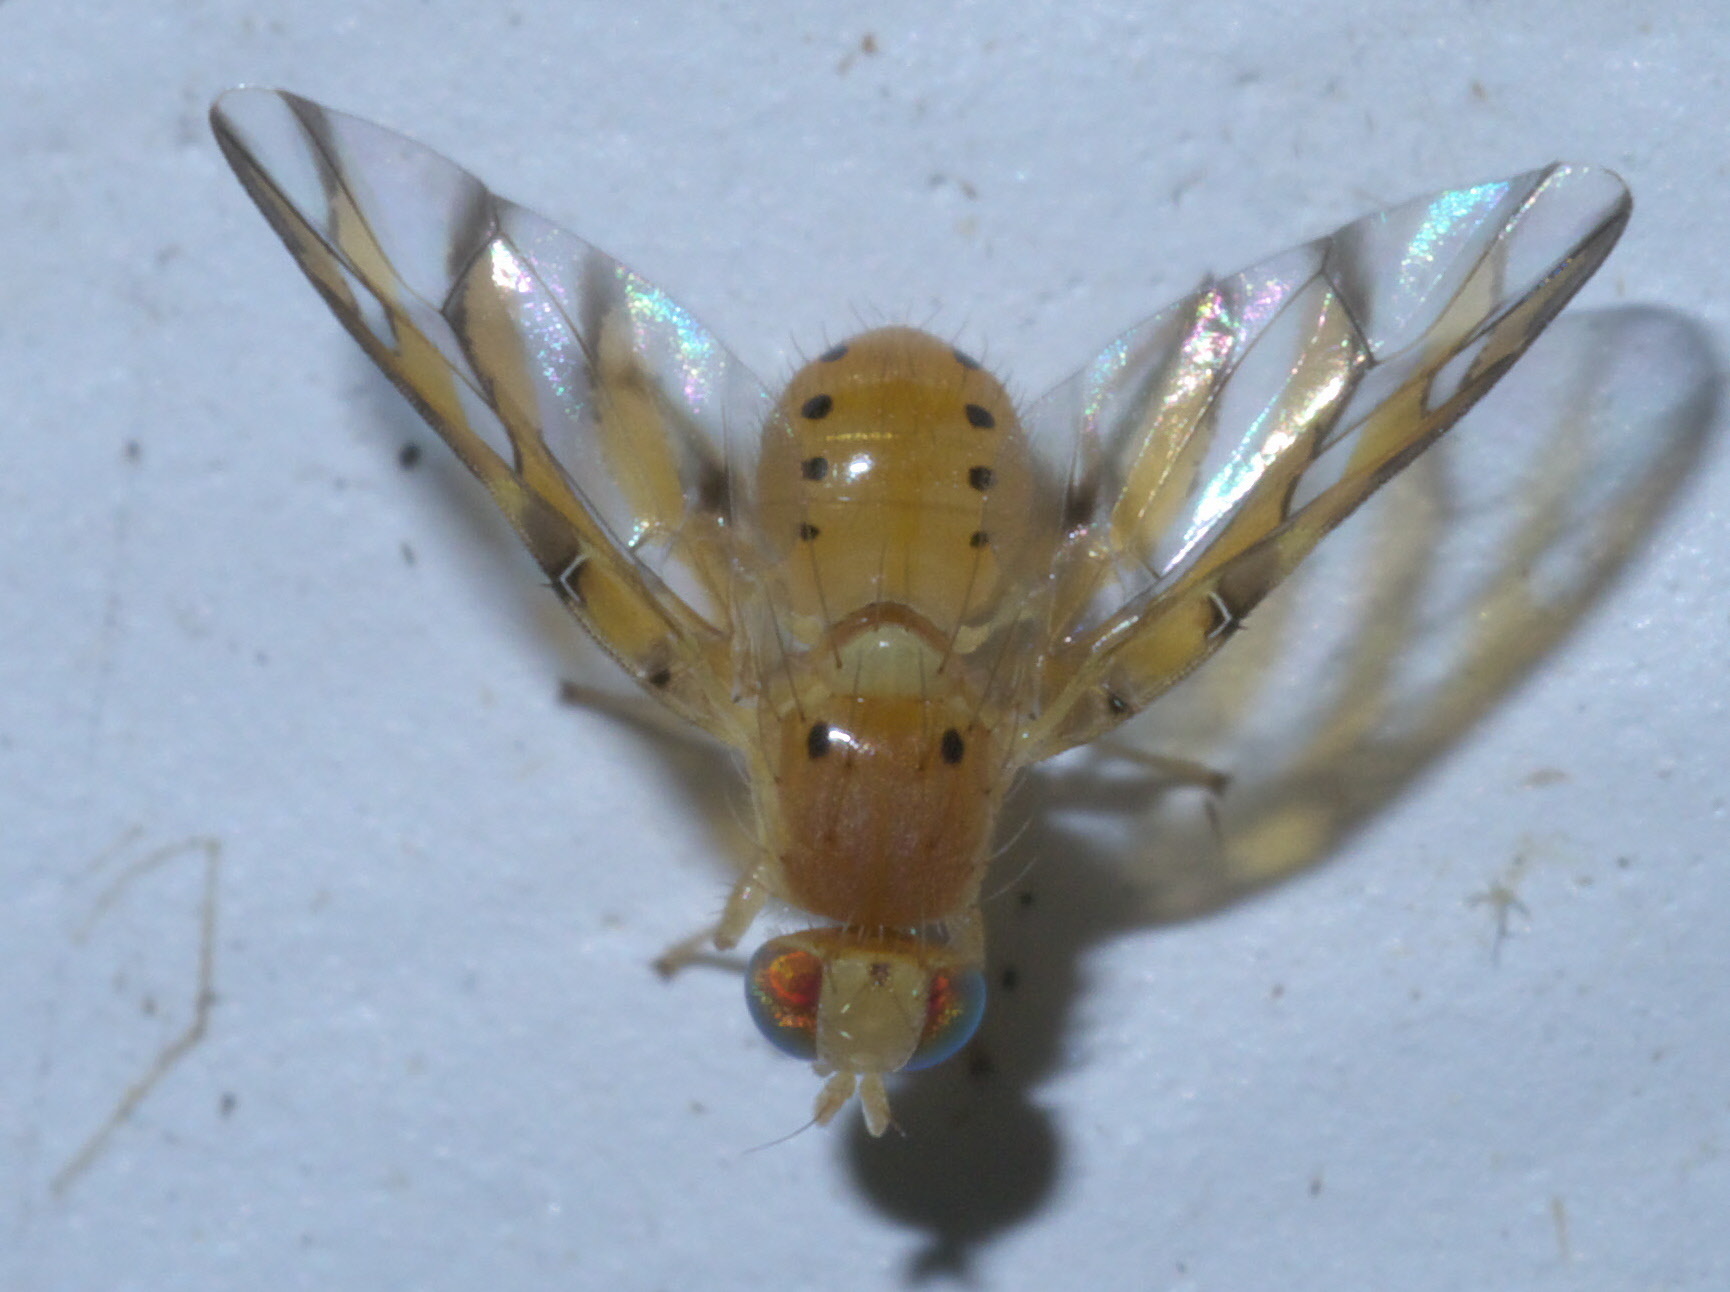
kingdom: Animalia
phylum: Arthropoda
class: Insecta
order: Diptera
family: Tephritidae
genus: Tomoplagia
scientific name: Tomoplagia obliqua
